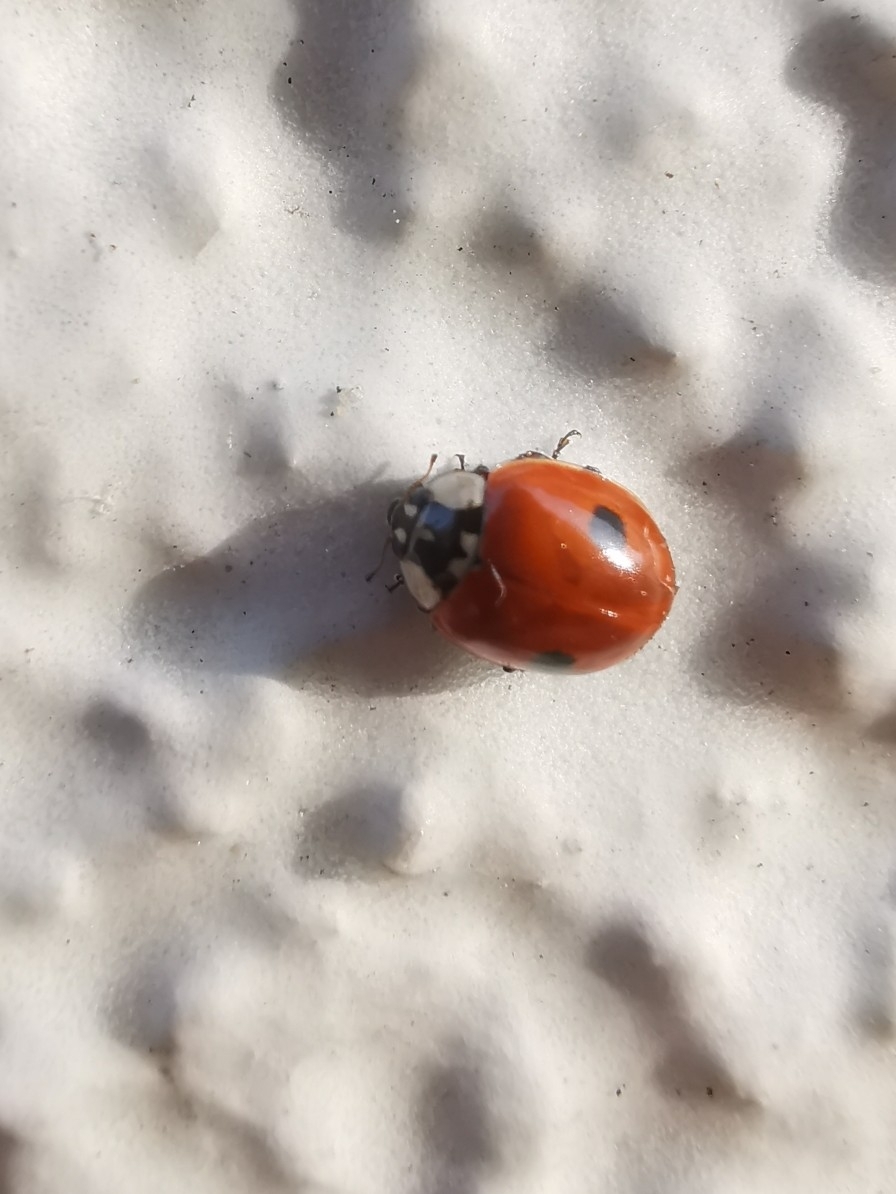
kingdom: Animalia
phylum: Arthropoda
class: Insecta
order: Coleoptera
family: Coccinellidae
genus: Adalia
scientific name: Adalia bipunctata
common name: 2-spot ladybird
